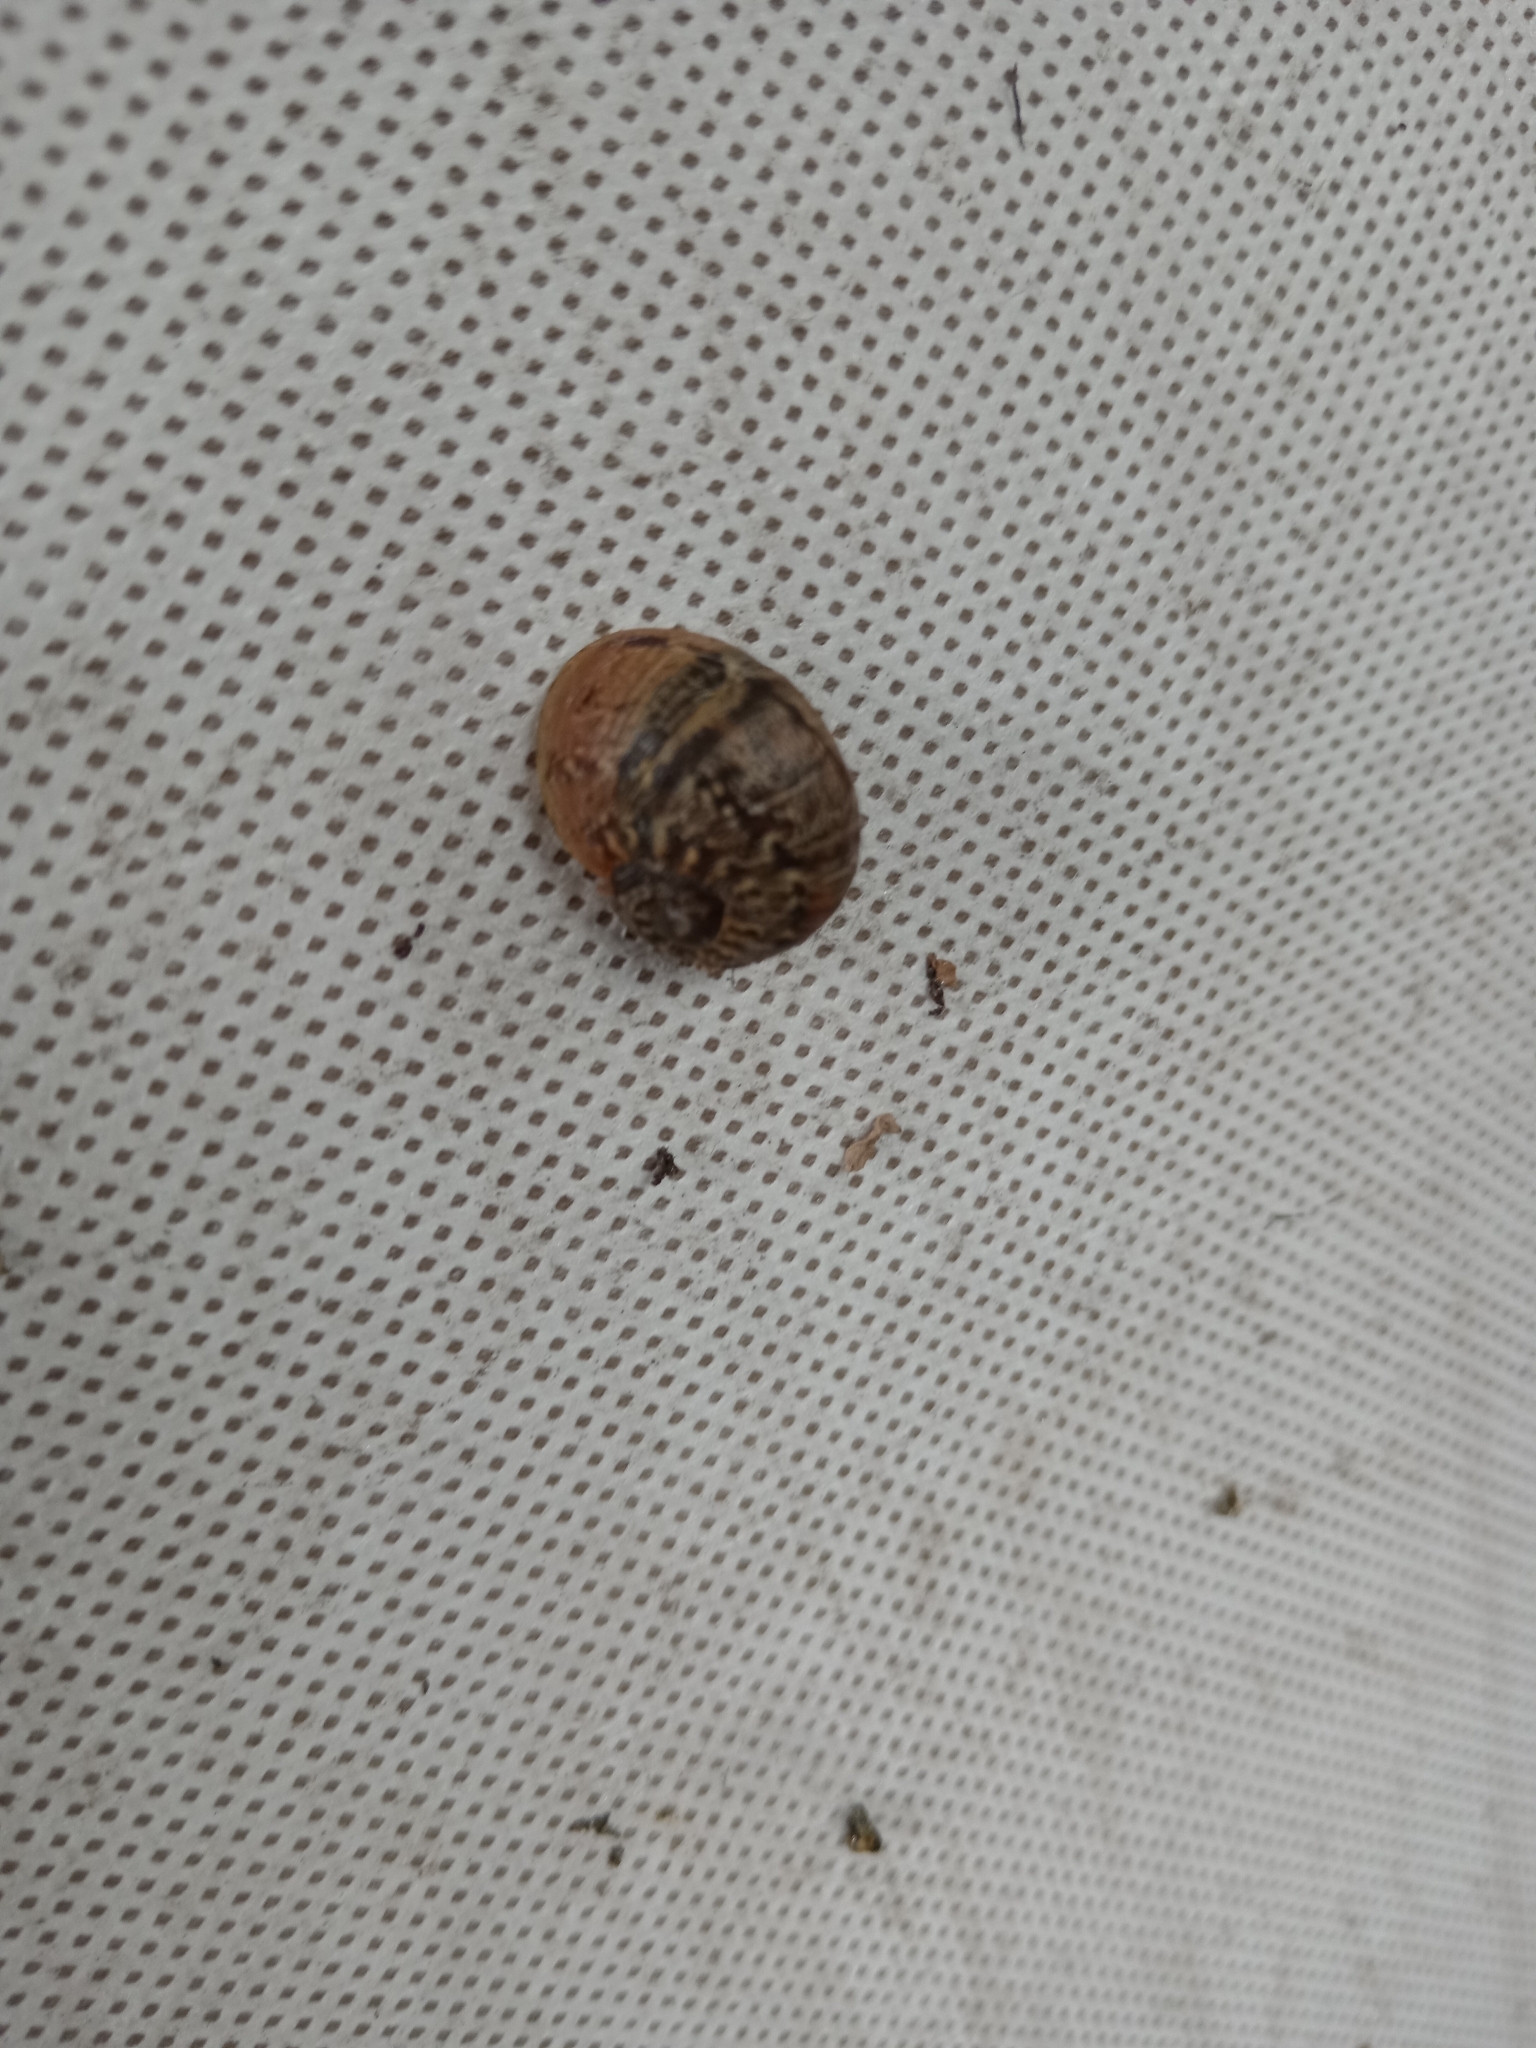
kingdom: Animalia
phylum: Mollusca
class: Gastropoda
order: Stylommatophora
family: Helicidae
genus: Cornu
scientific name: Cornu aspersum
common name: Brown garden snail
